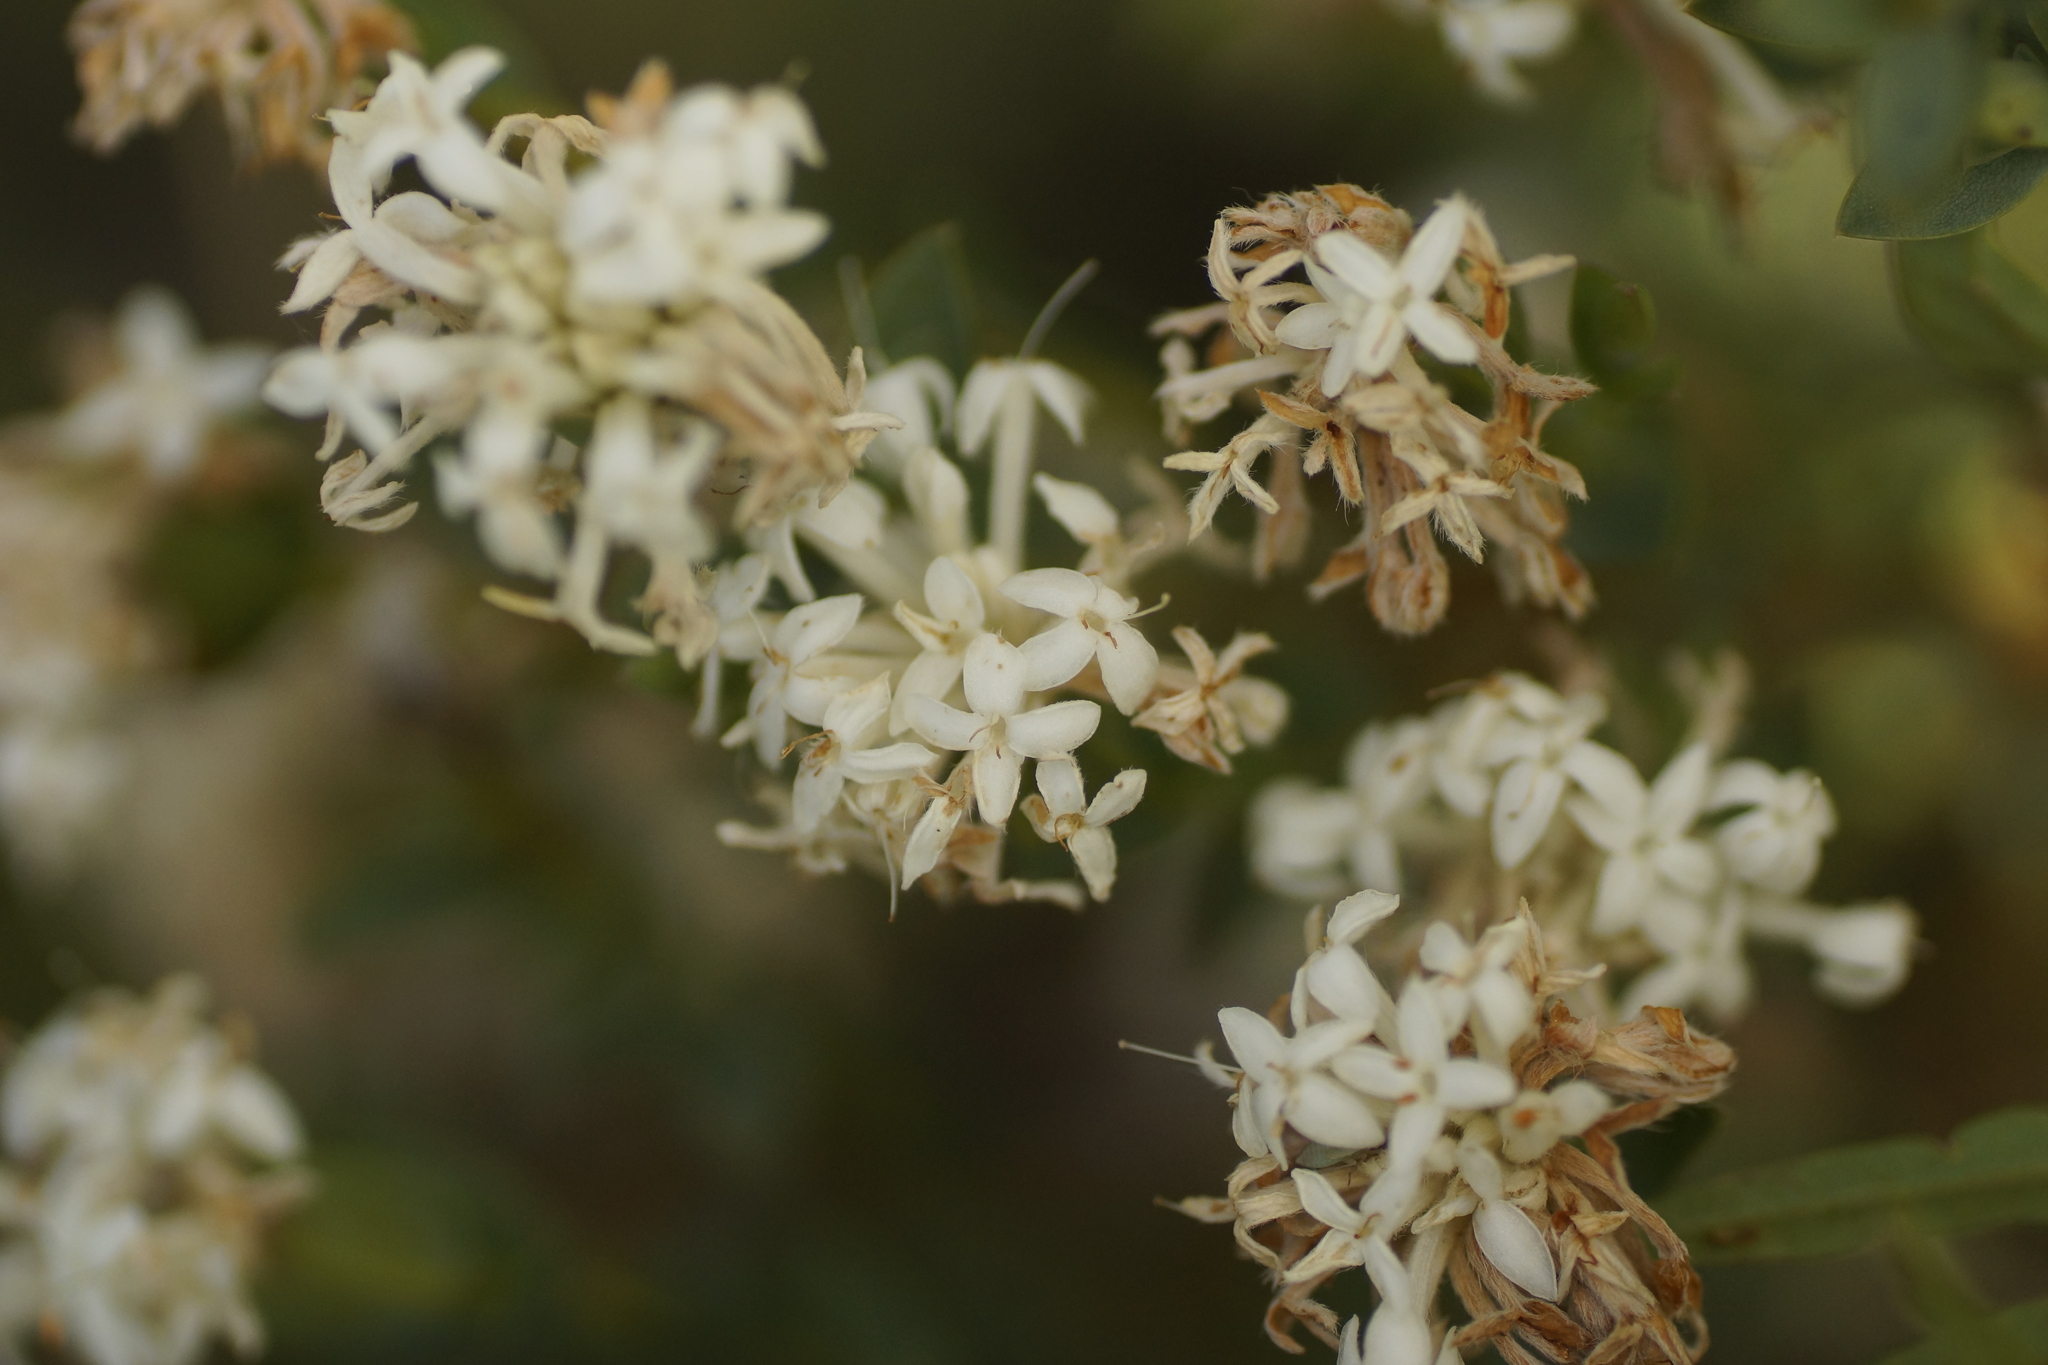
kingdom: Plantae
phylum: Tracheophyta
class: Magnoliopsida
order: Malvales
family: Thymelaeaceae
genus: Pimelea
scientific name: Pimelea glauca
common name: Smooth riceflower
